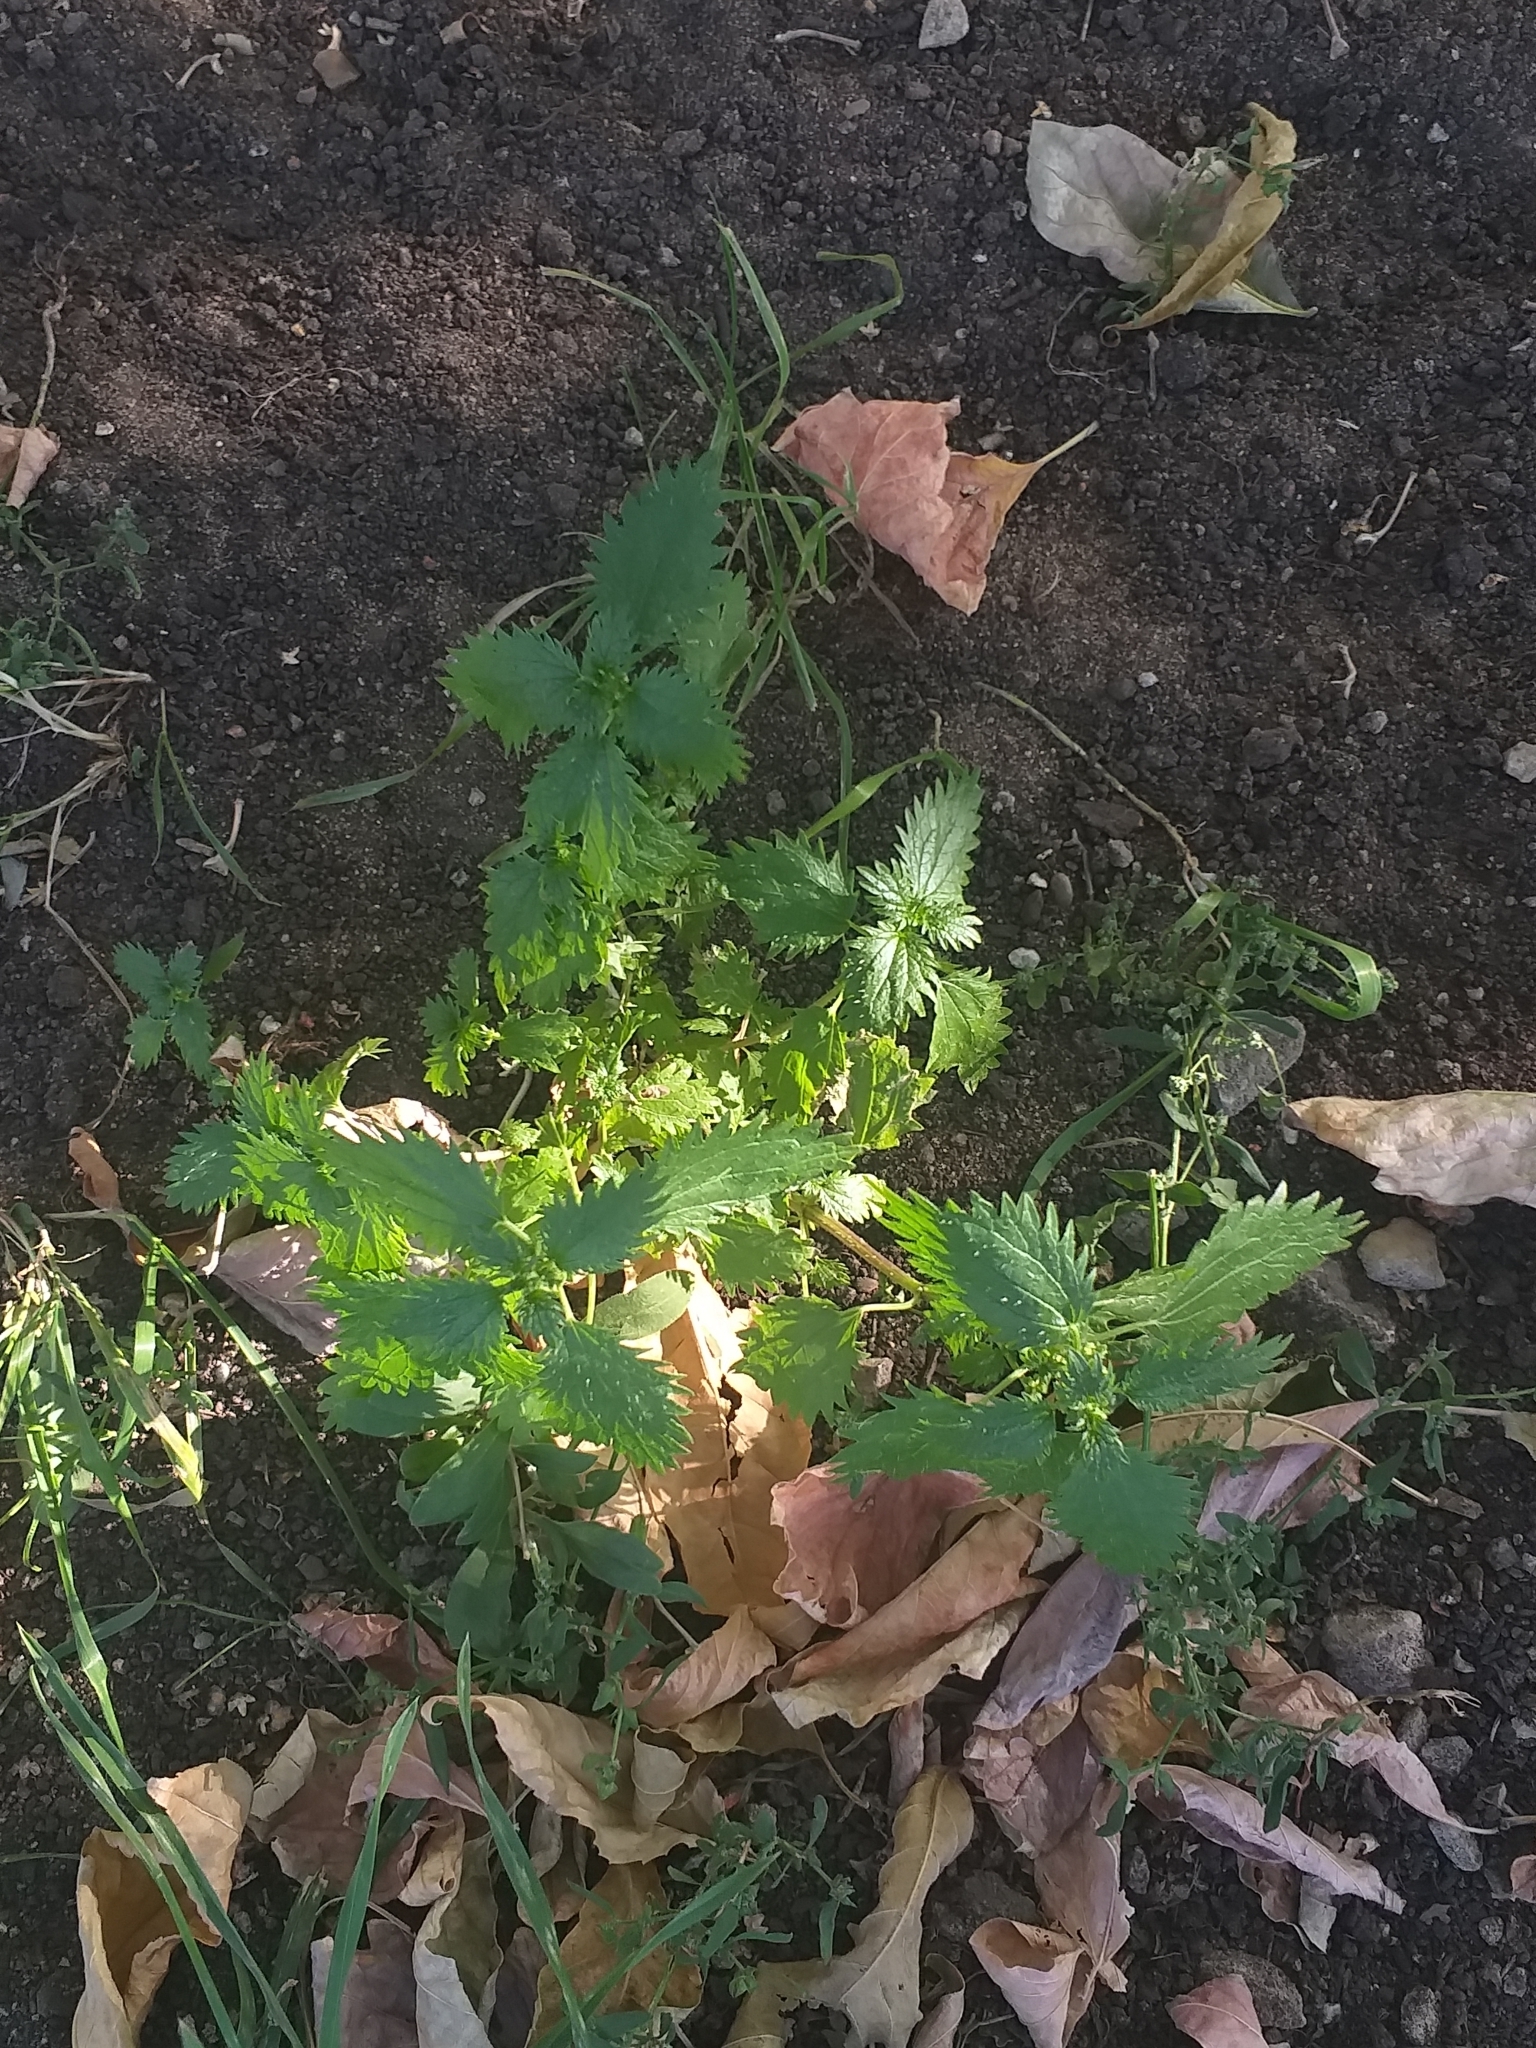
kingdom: Plantae
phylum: Tracheophyta
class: Magnoliopsida
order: Rosales
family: Urticaceae
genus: Urtica
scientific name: Urtica urens
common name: Dwarf nettle
